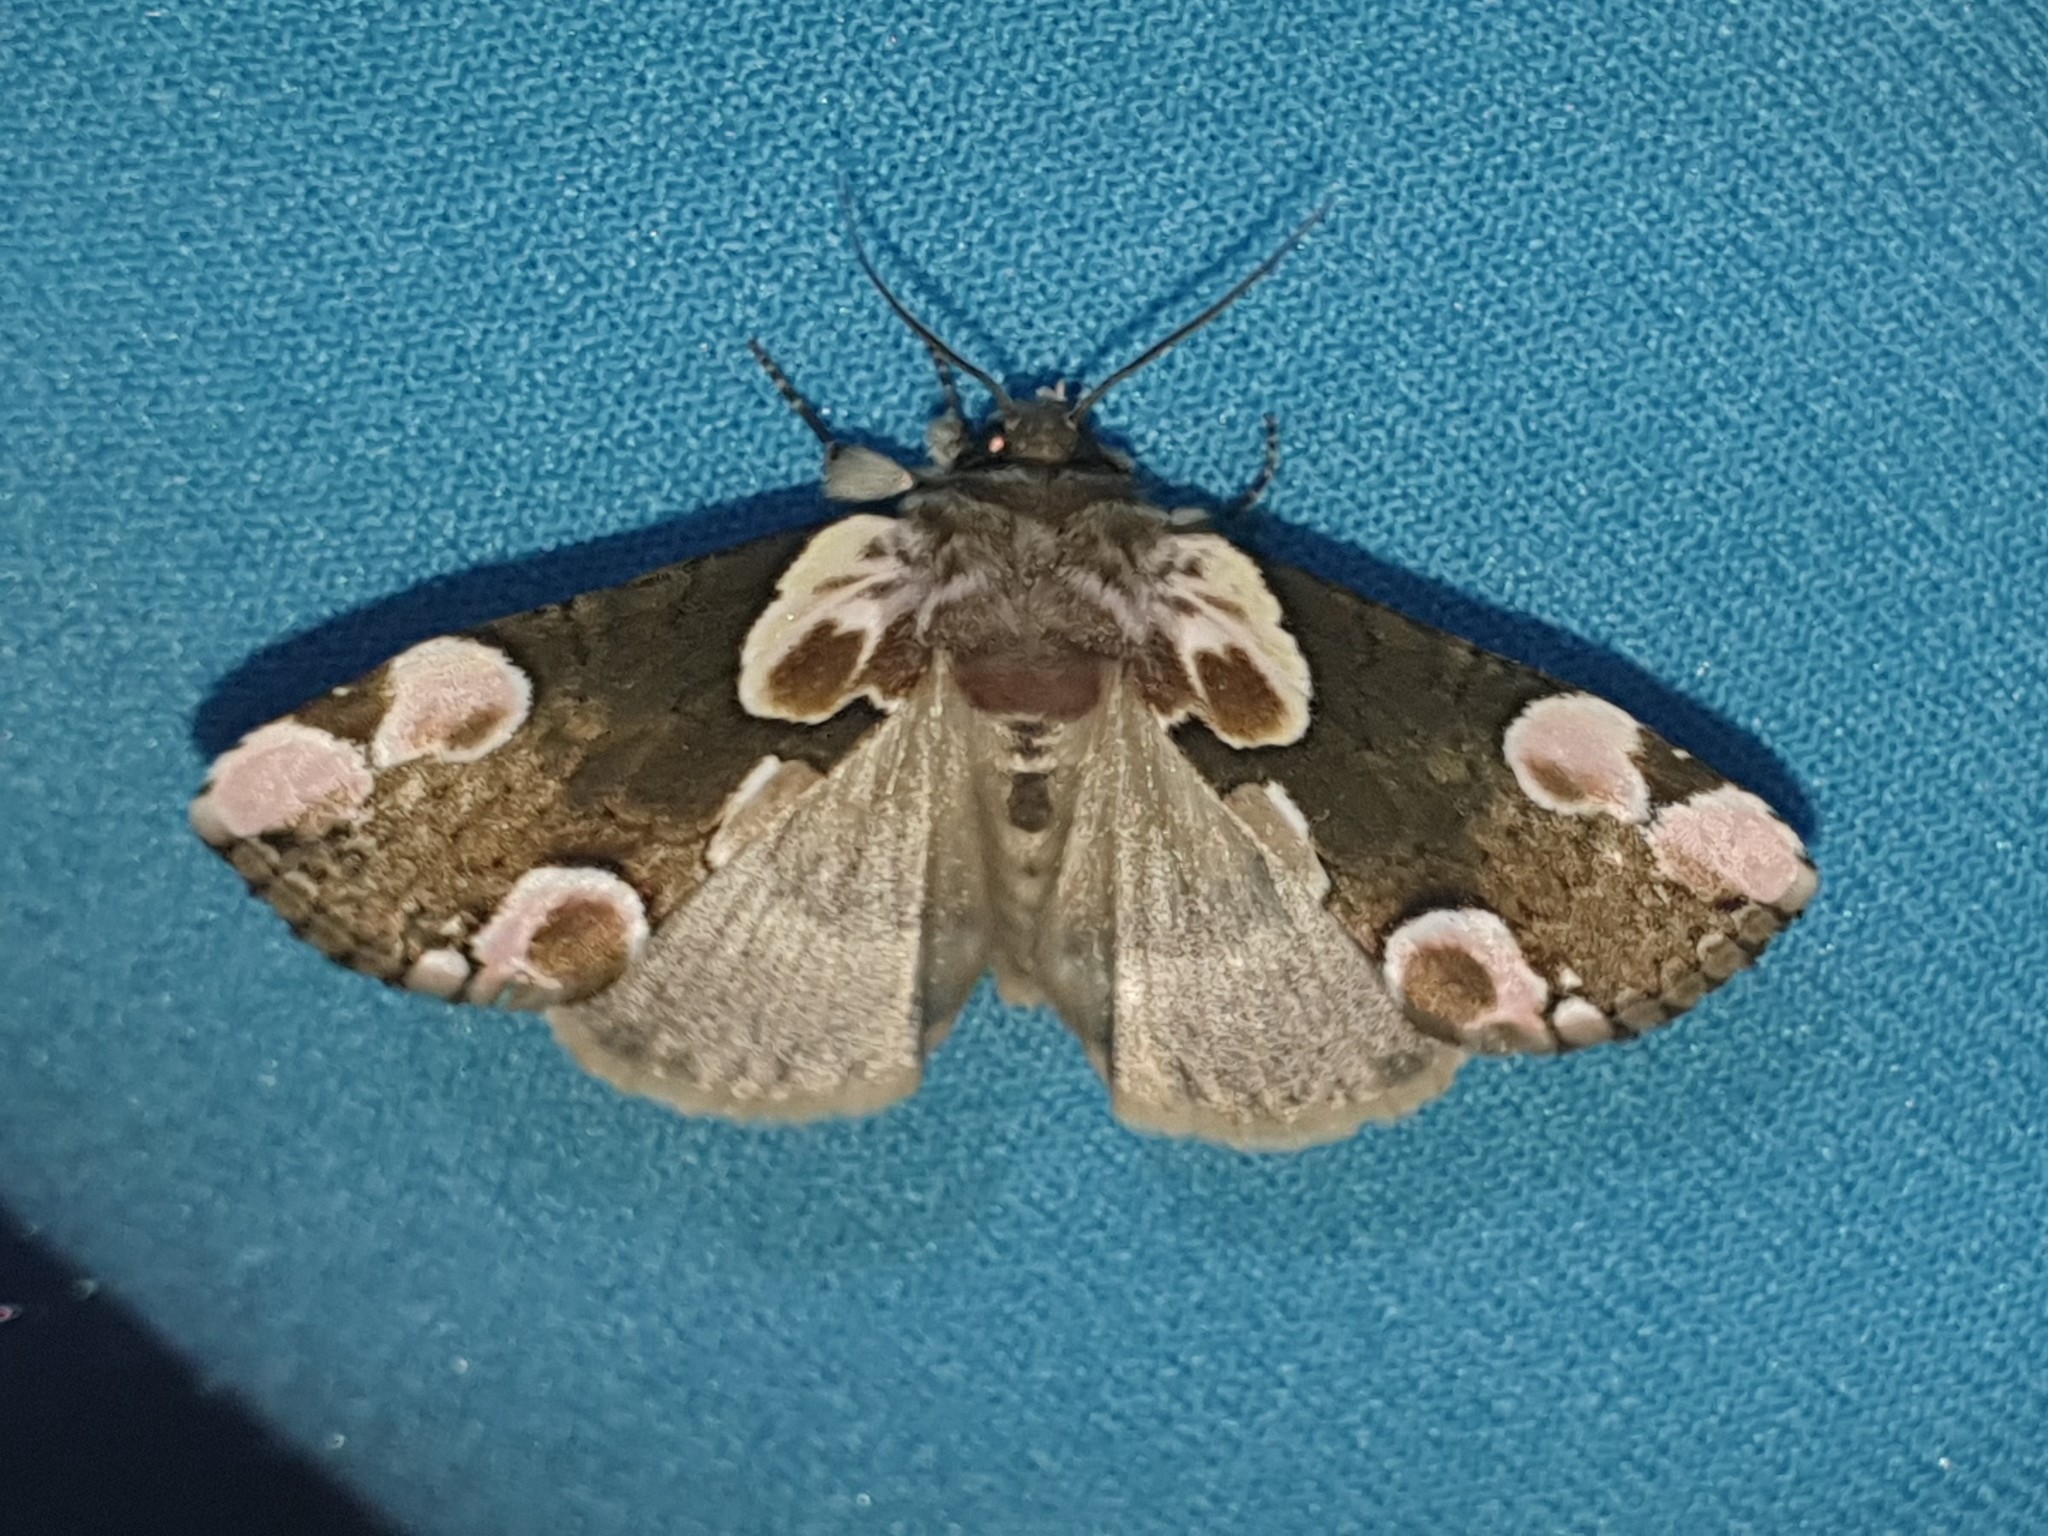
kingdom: Animalia
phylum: Arthropoda
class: Insecta
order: Lepidoptera
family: Drepanidae
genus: Thyatira
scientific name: Thyatira batis
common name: Peach blossom
